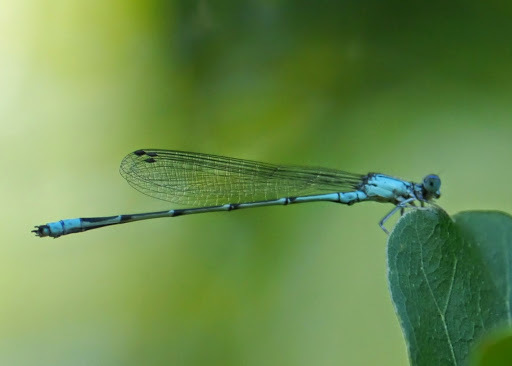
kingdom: Animalia
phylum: Arthropoda
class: Insecta
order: Odonata
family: Coenagrionidae
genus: Enallagma
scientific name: Enallagma traviatum
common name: Slender bluet
